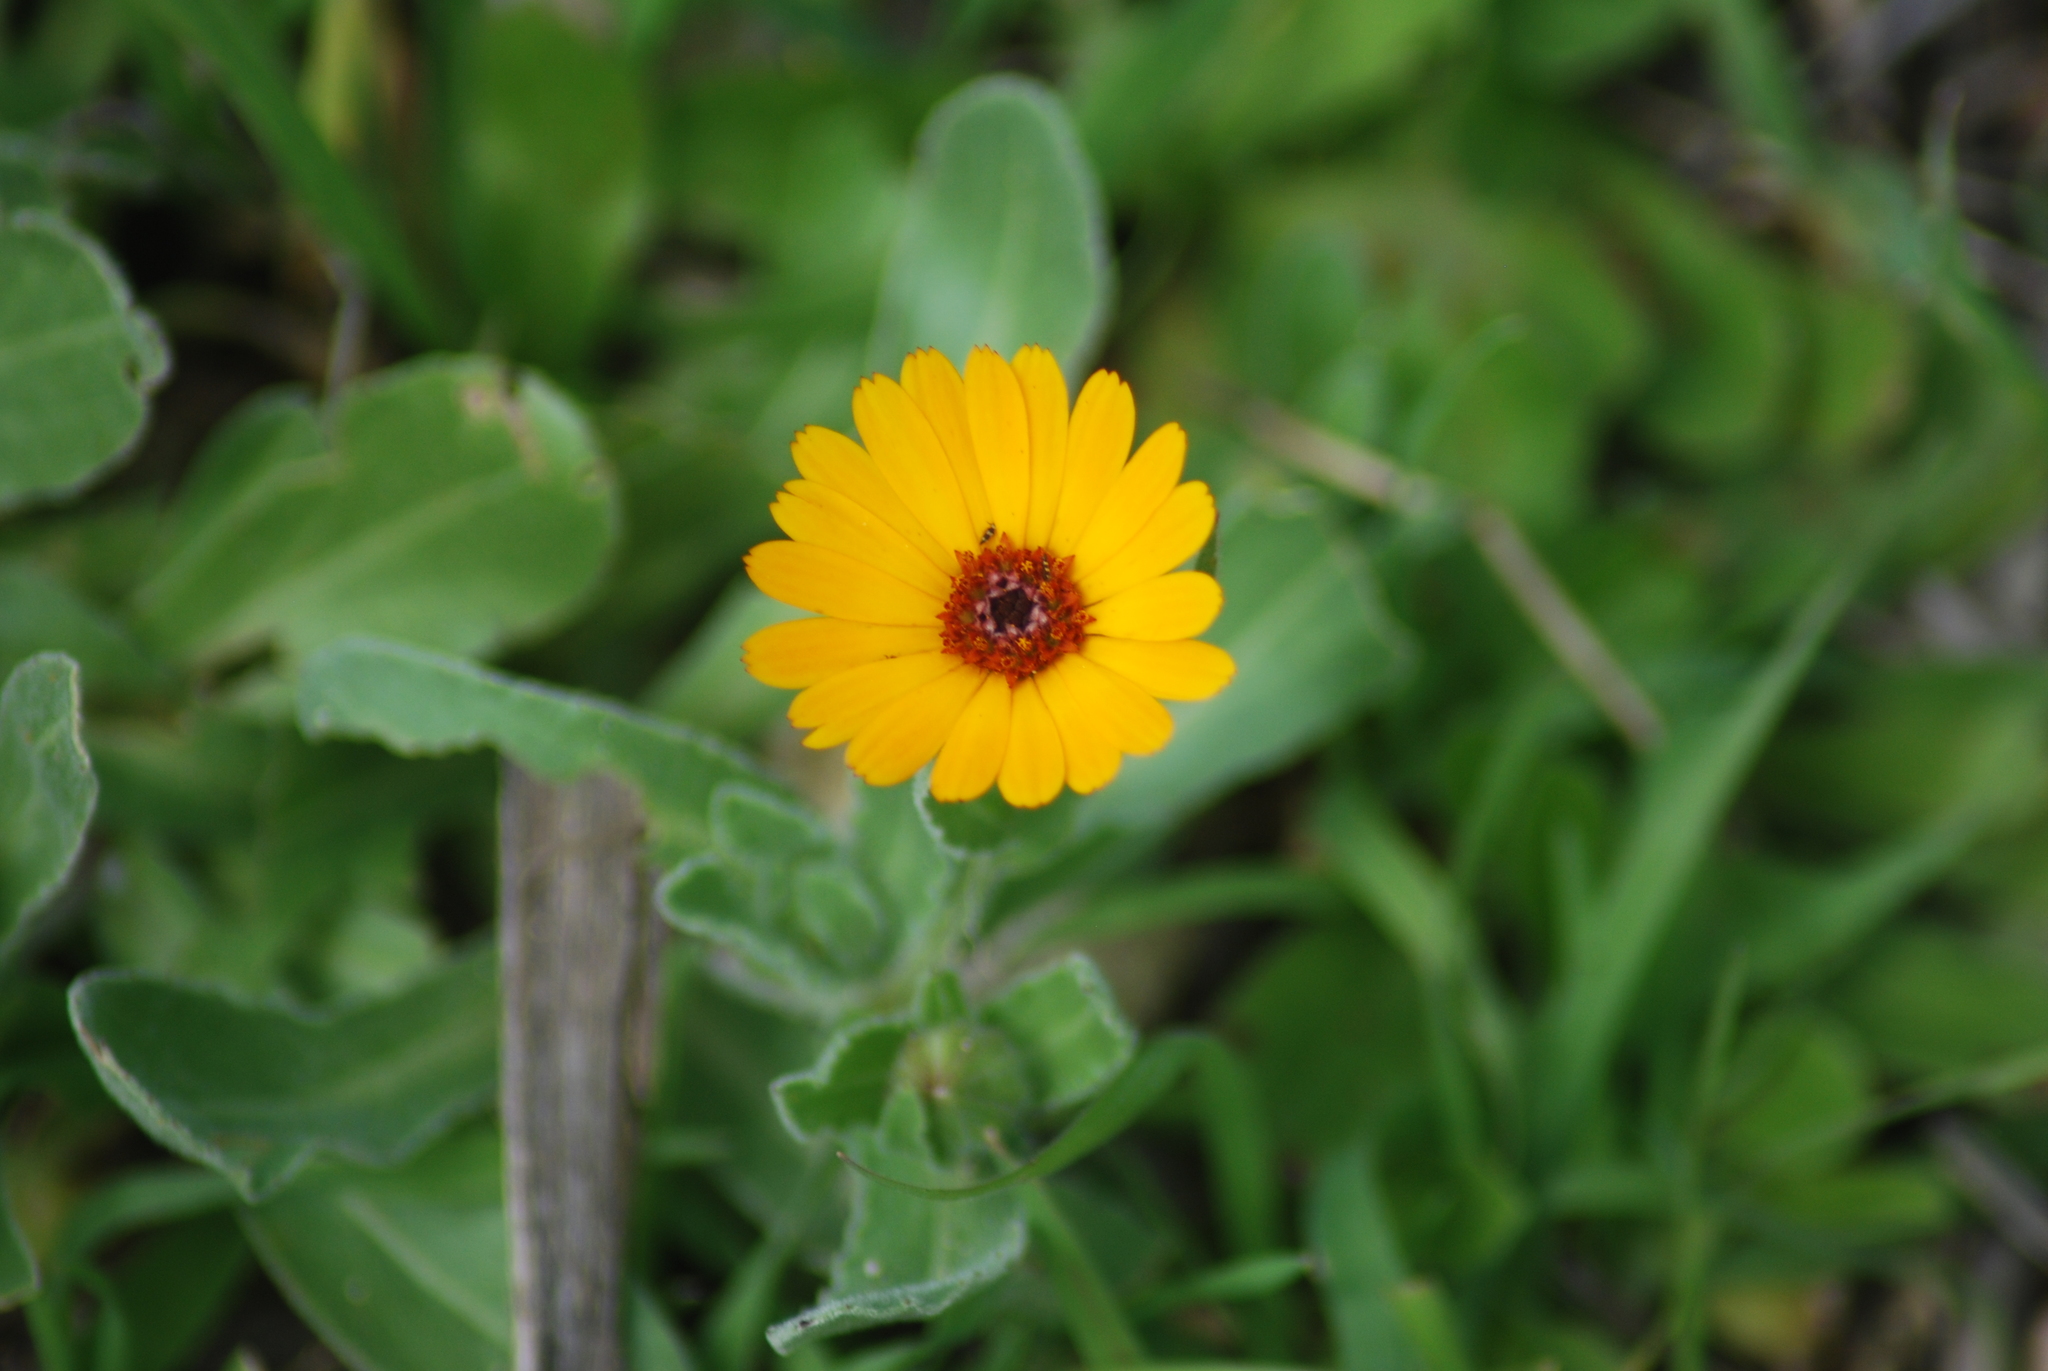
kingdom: Plantae
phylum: Tracheophyta
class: Magnoliopsida
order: Asterales
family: Asteraceae
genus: Calendula
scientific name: Calendula stellata
